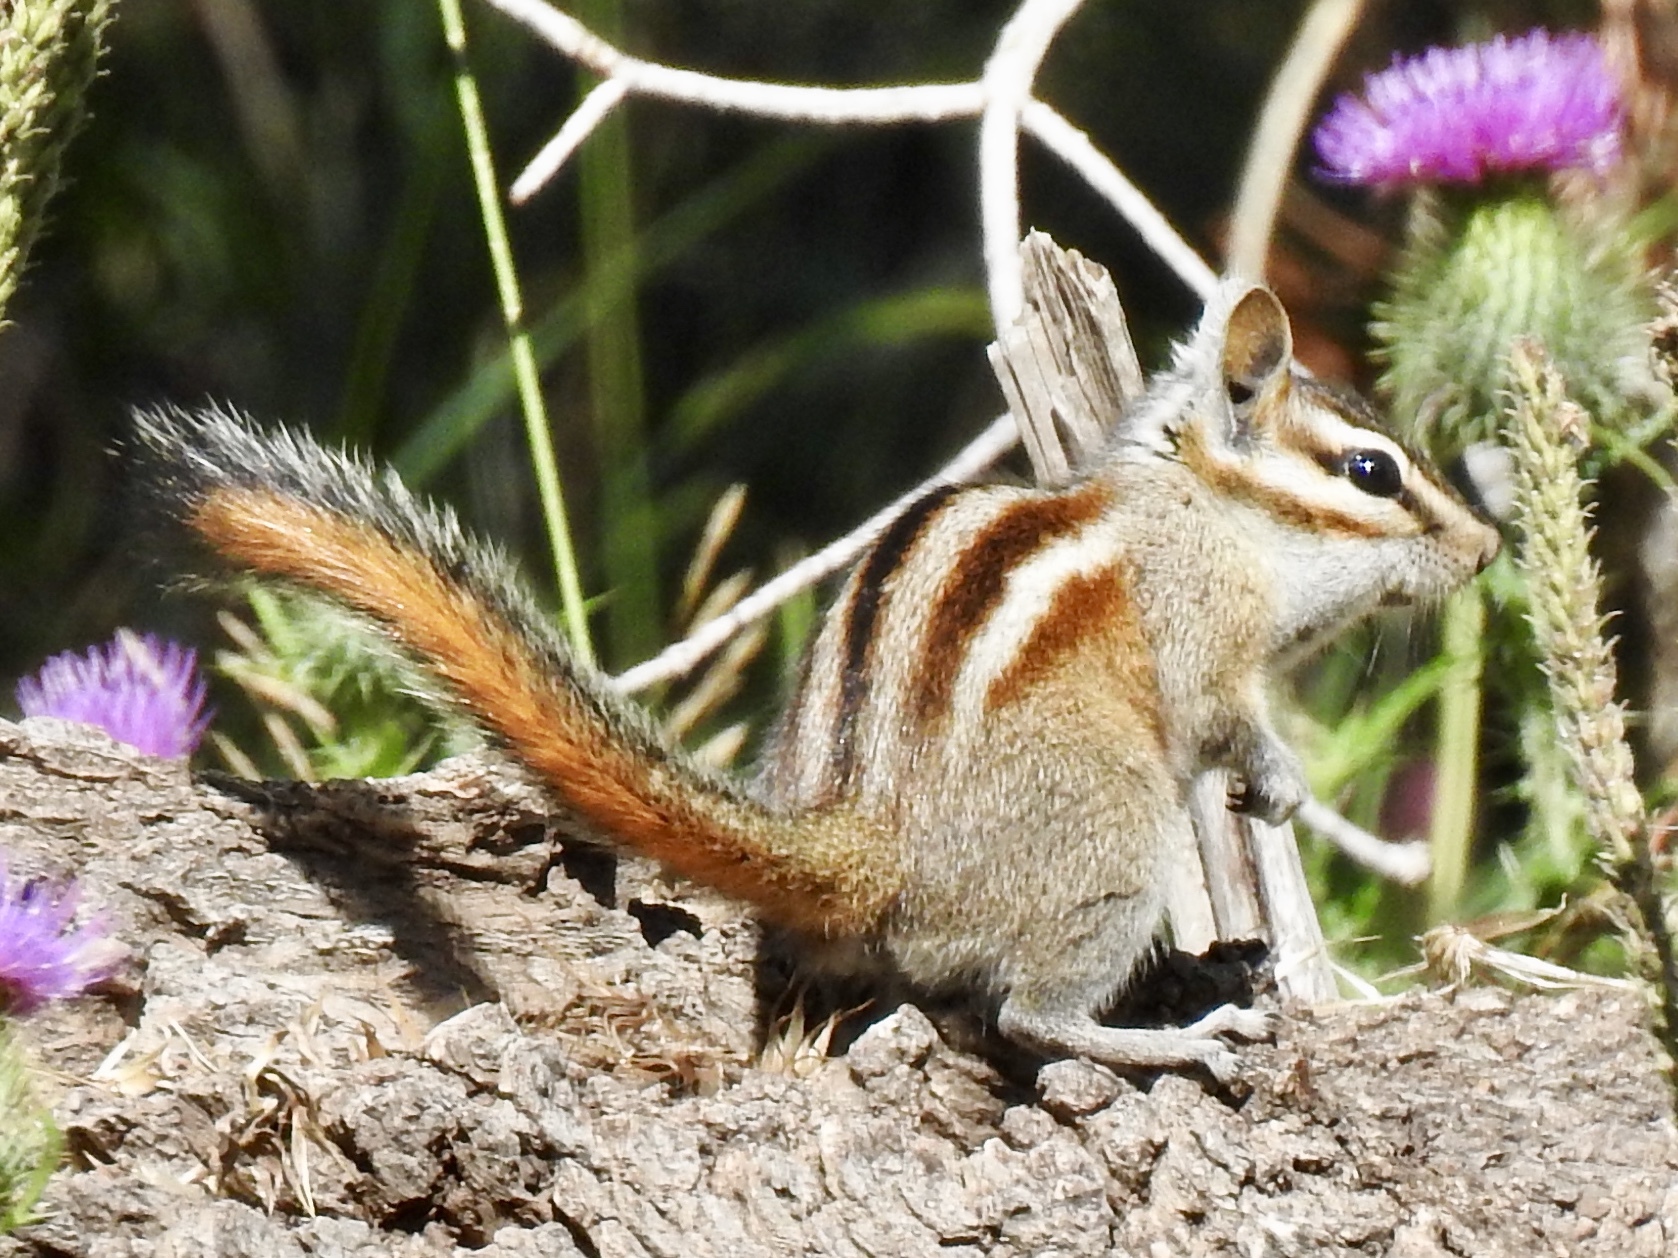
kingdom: Animalia
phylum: Chordata
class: Mammalia
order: Rodentia
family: Sciuridae
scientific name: Sciuridae
